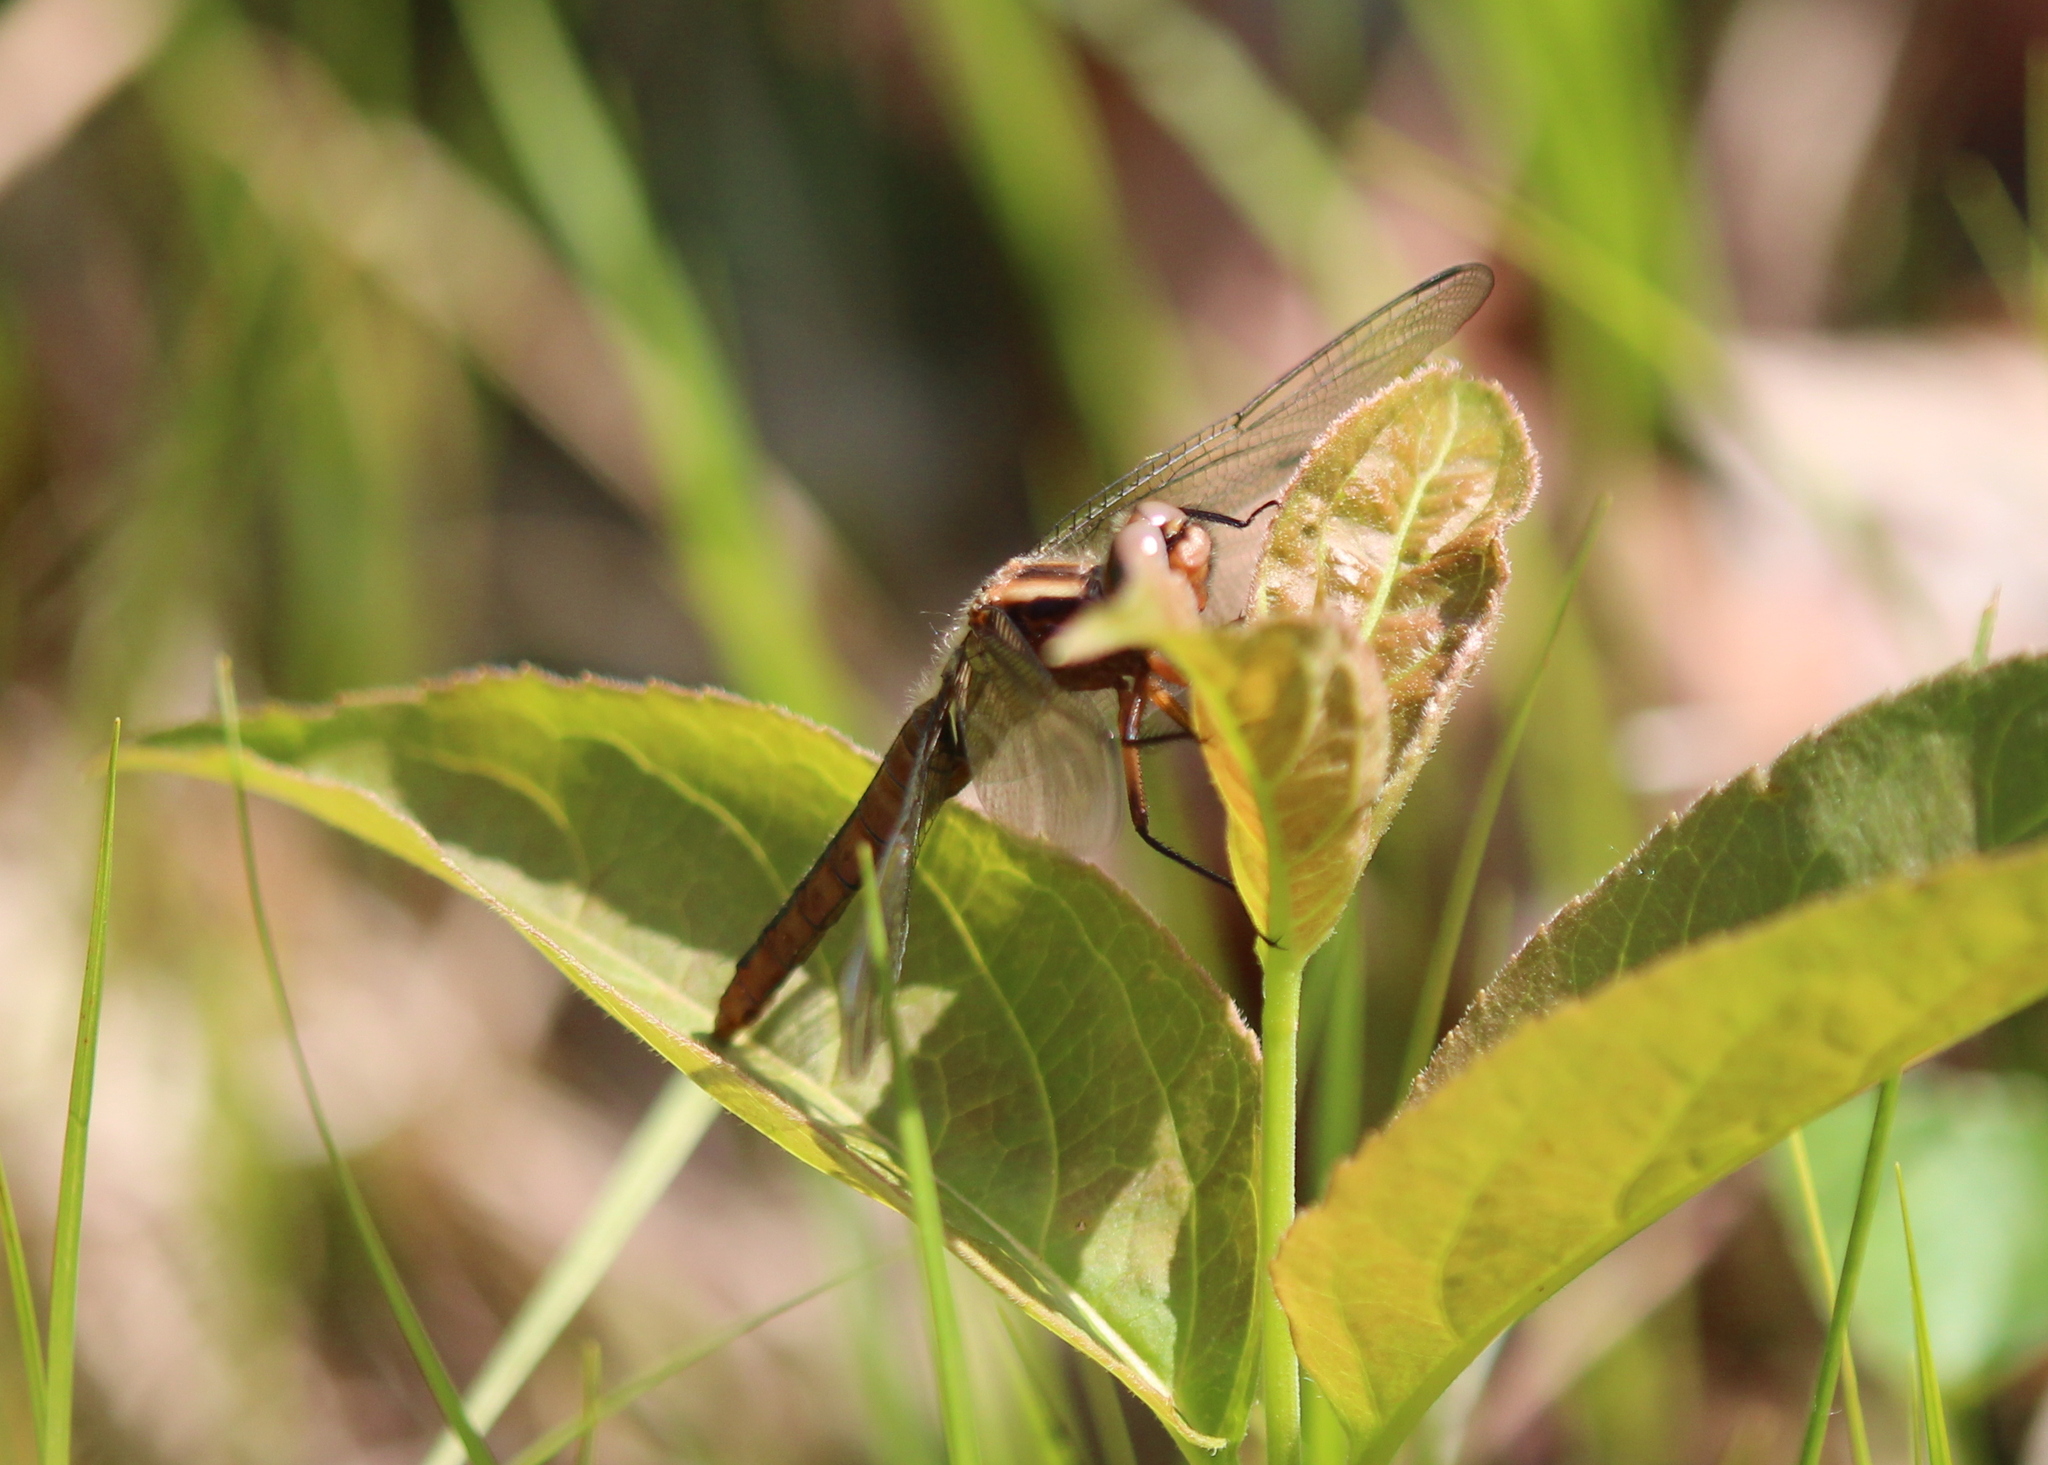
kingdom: Animalia
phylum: Arthropoda
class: Insecta
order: Odonata
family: Libellulidae
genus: Ladona
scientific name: Ladona julia
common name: Chalk-fronted corporal
